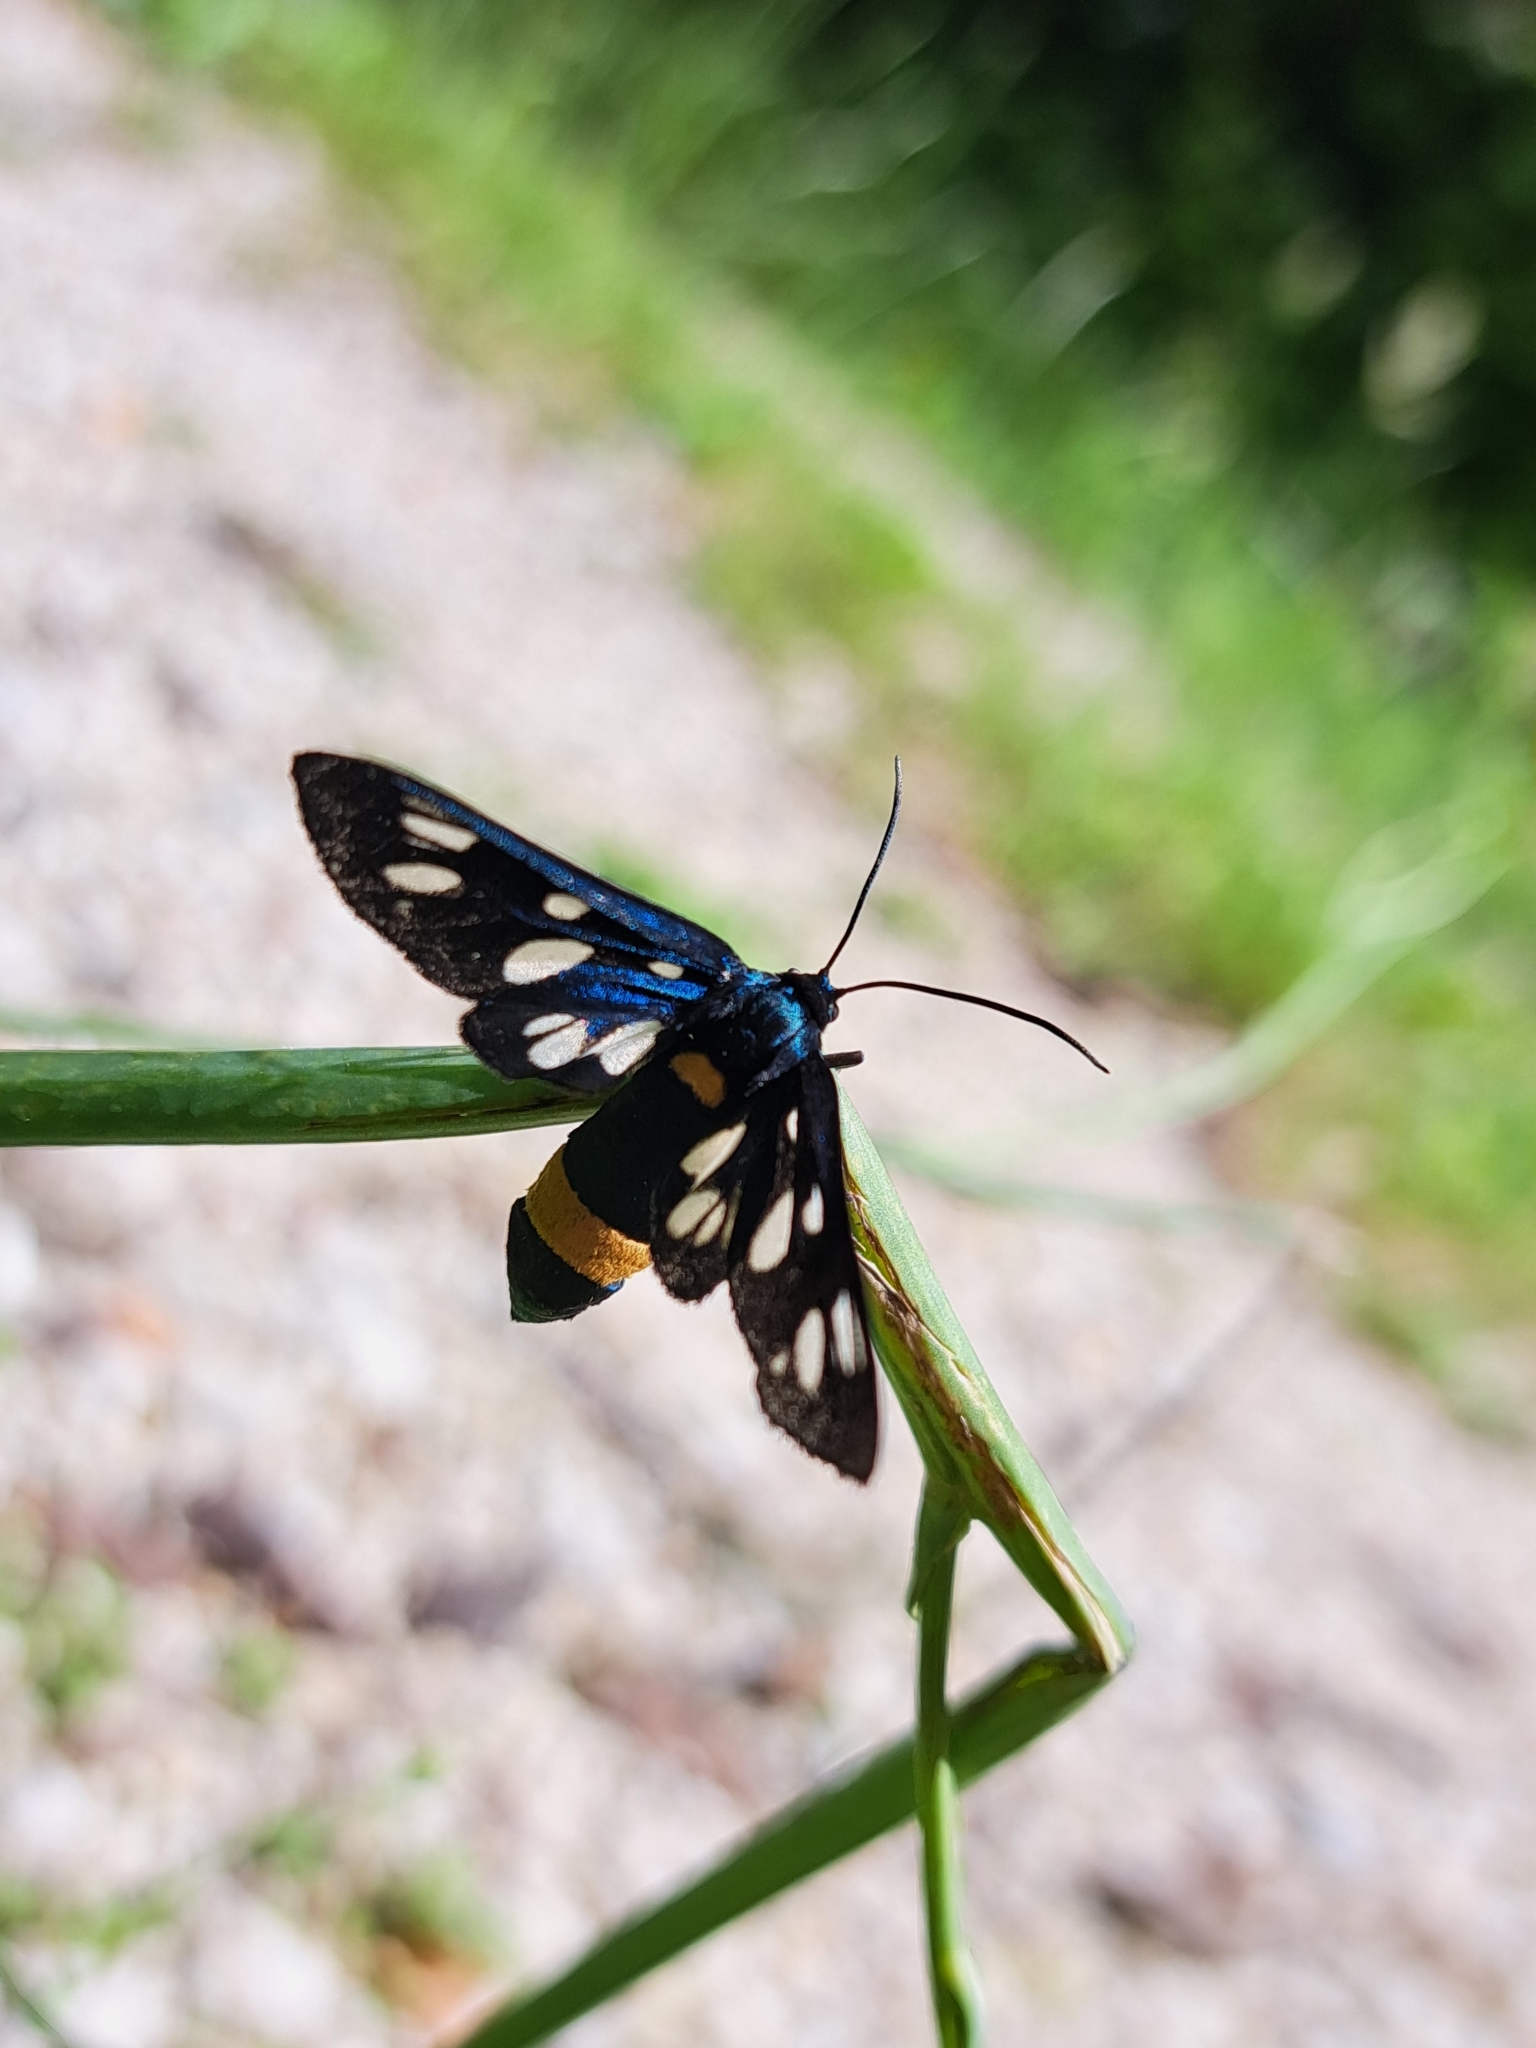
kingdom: Animalia
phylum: Arthropoda
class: Insecta
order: Lepidoptera
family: Erebidae
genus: Amata
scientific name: Amata phegea
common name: Nine-spotted
